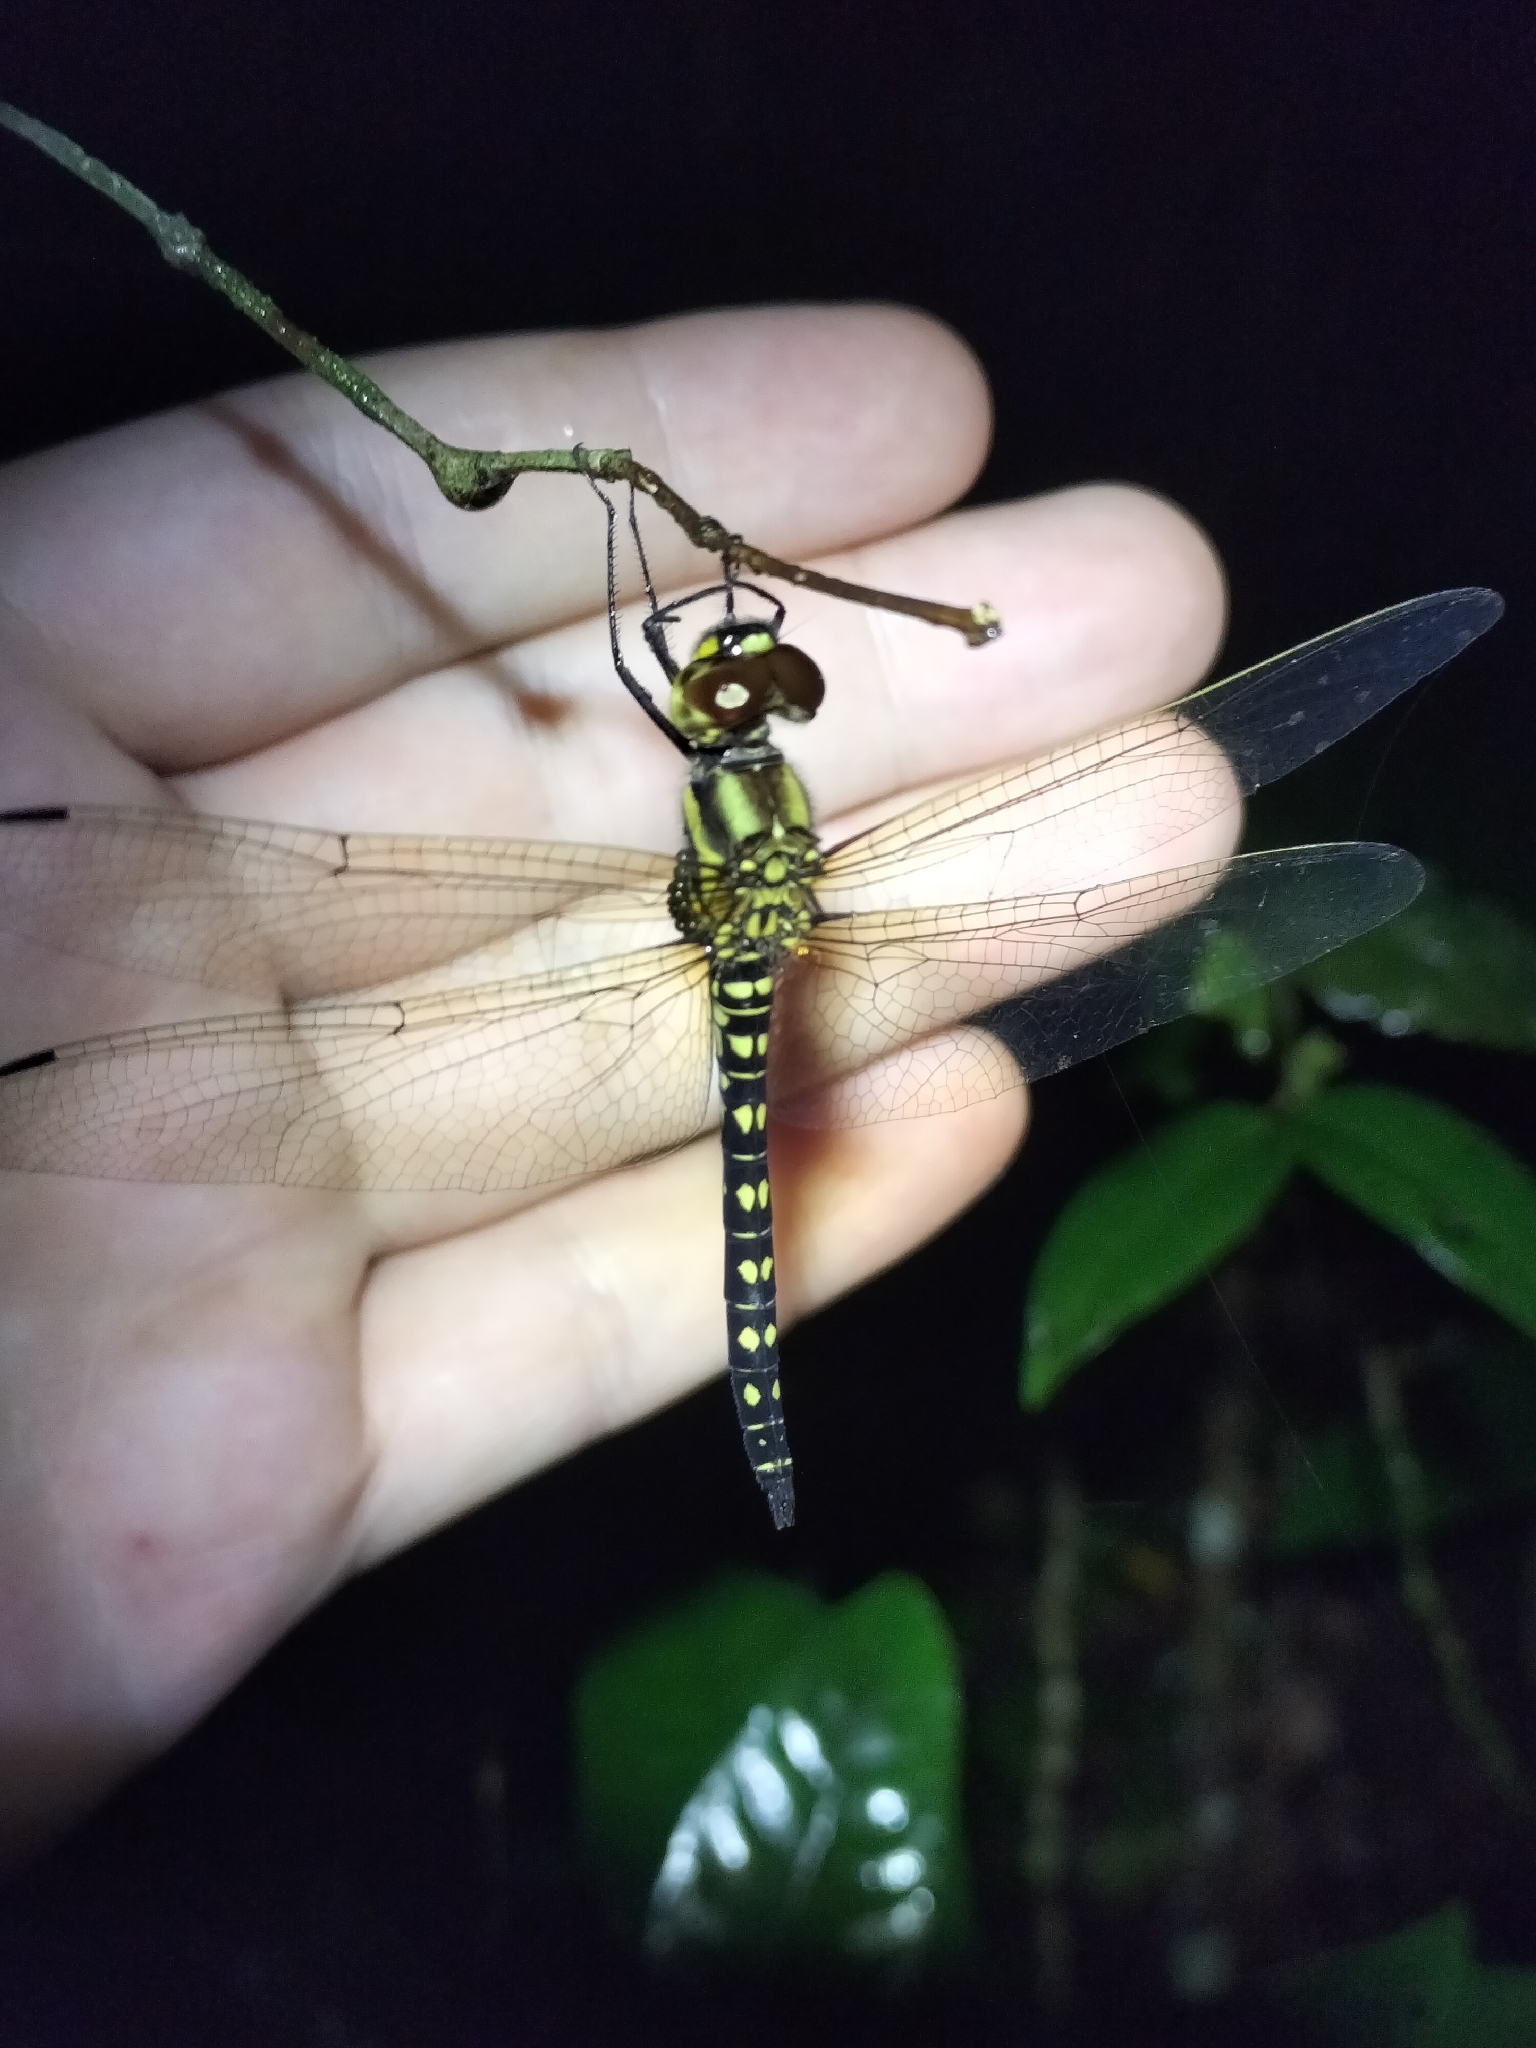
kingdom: Animalia
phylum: Arthropoda
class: Insecta
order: Odonata
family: Libellulidae
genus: Hydrobasileus
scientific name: Hydrobasileus brevistylus
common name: Water prince
